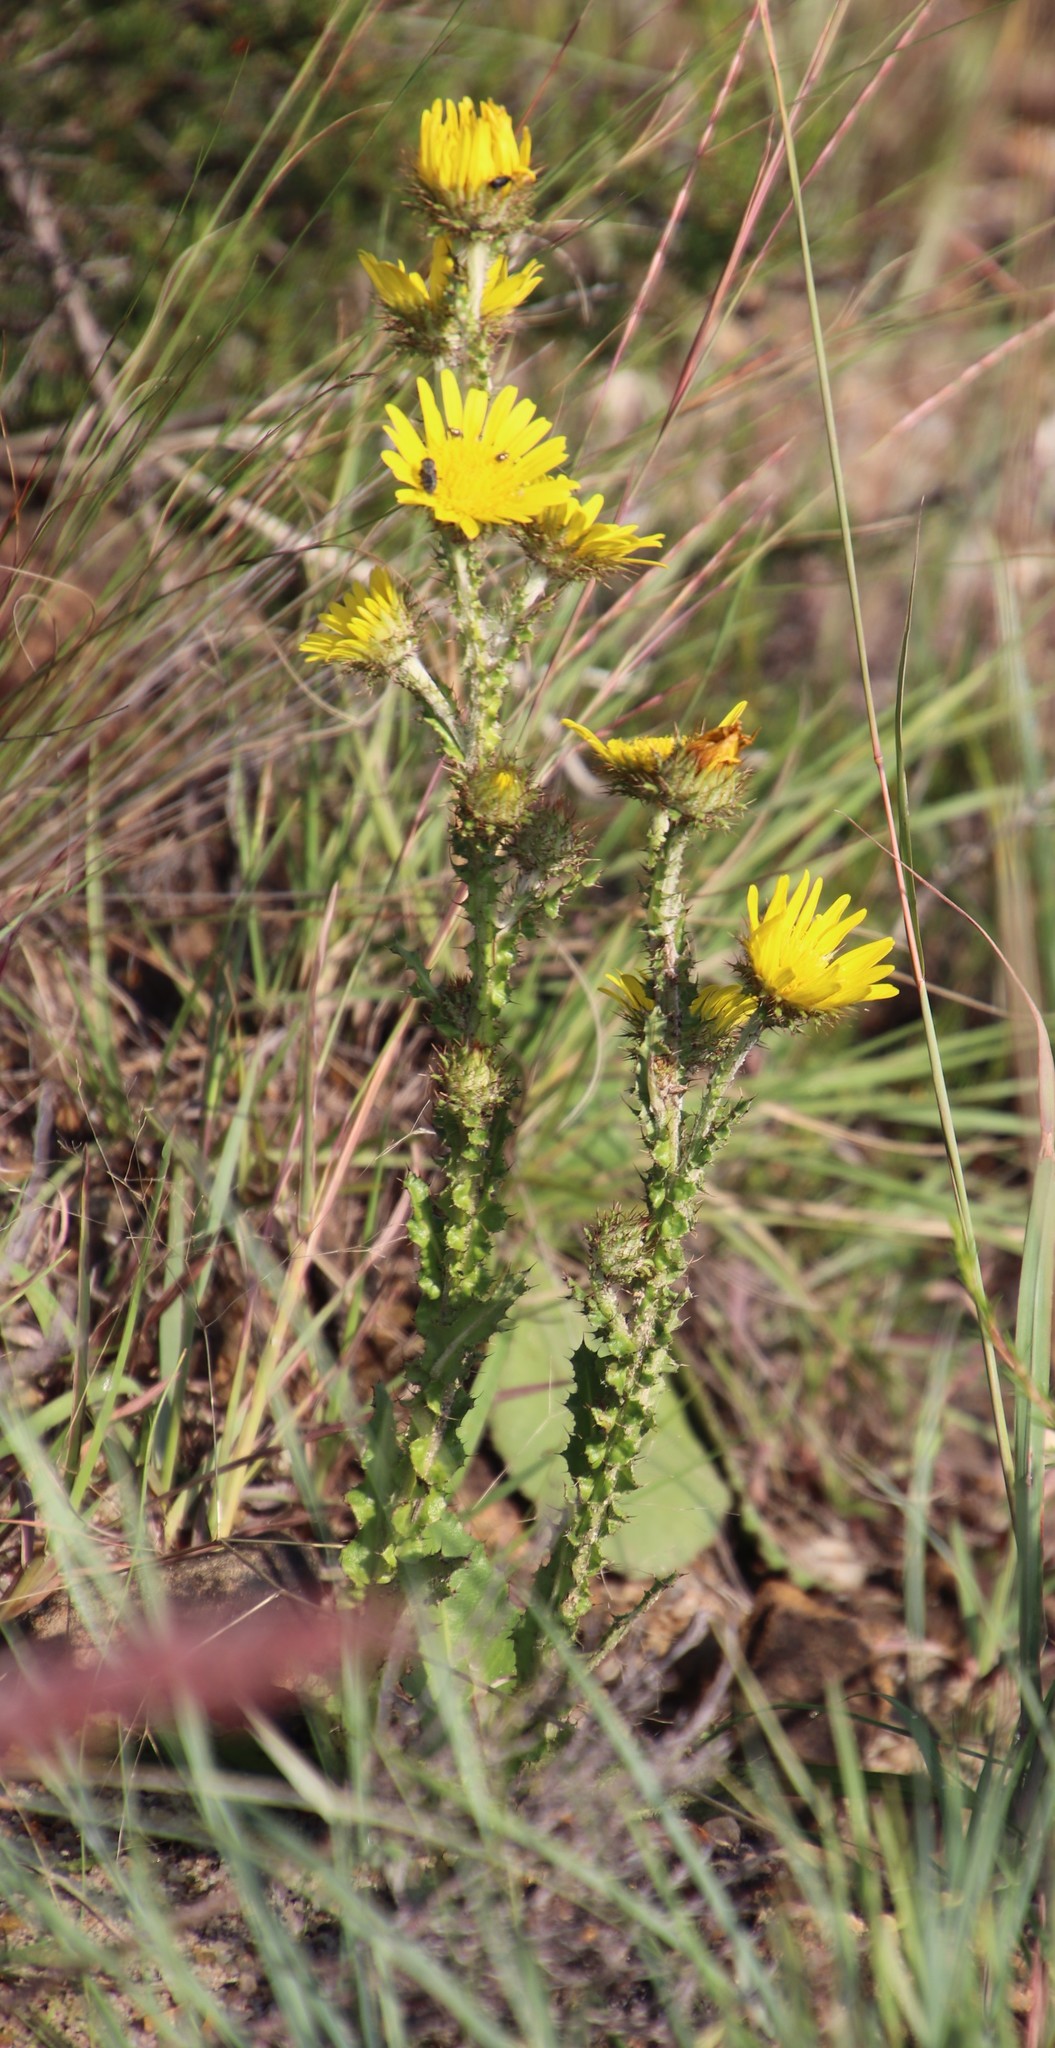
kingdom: Plantae
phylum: Tracheophyta
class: Magnoliopsida
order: Asterales
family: Asteraceae
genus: Berkheya
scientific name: Berkheya rhapontica
